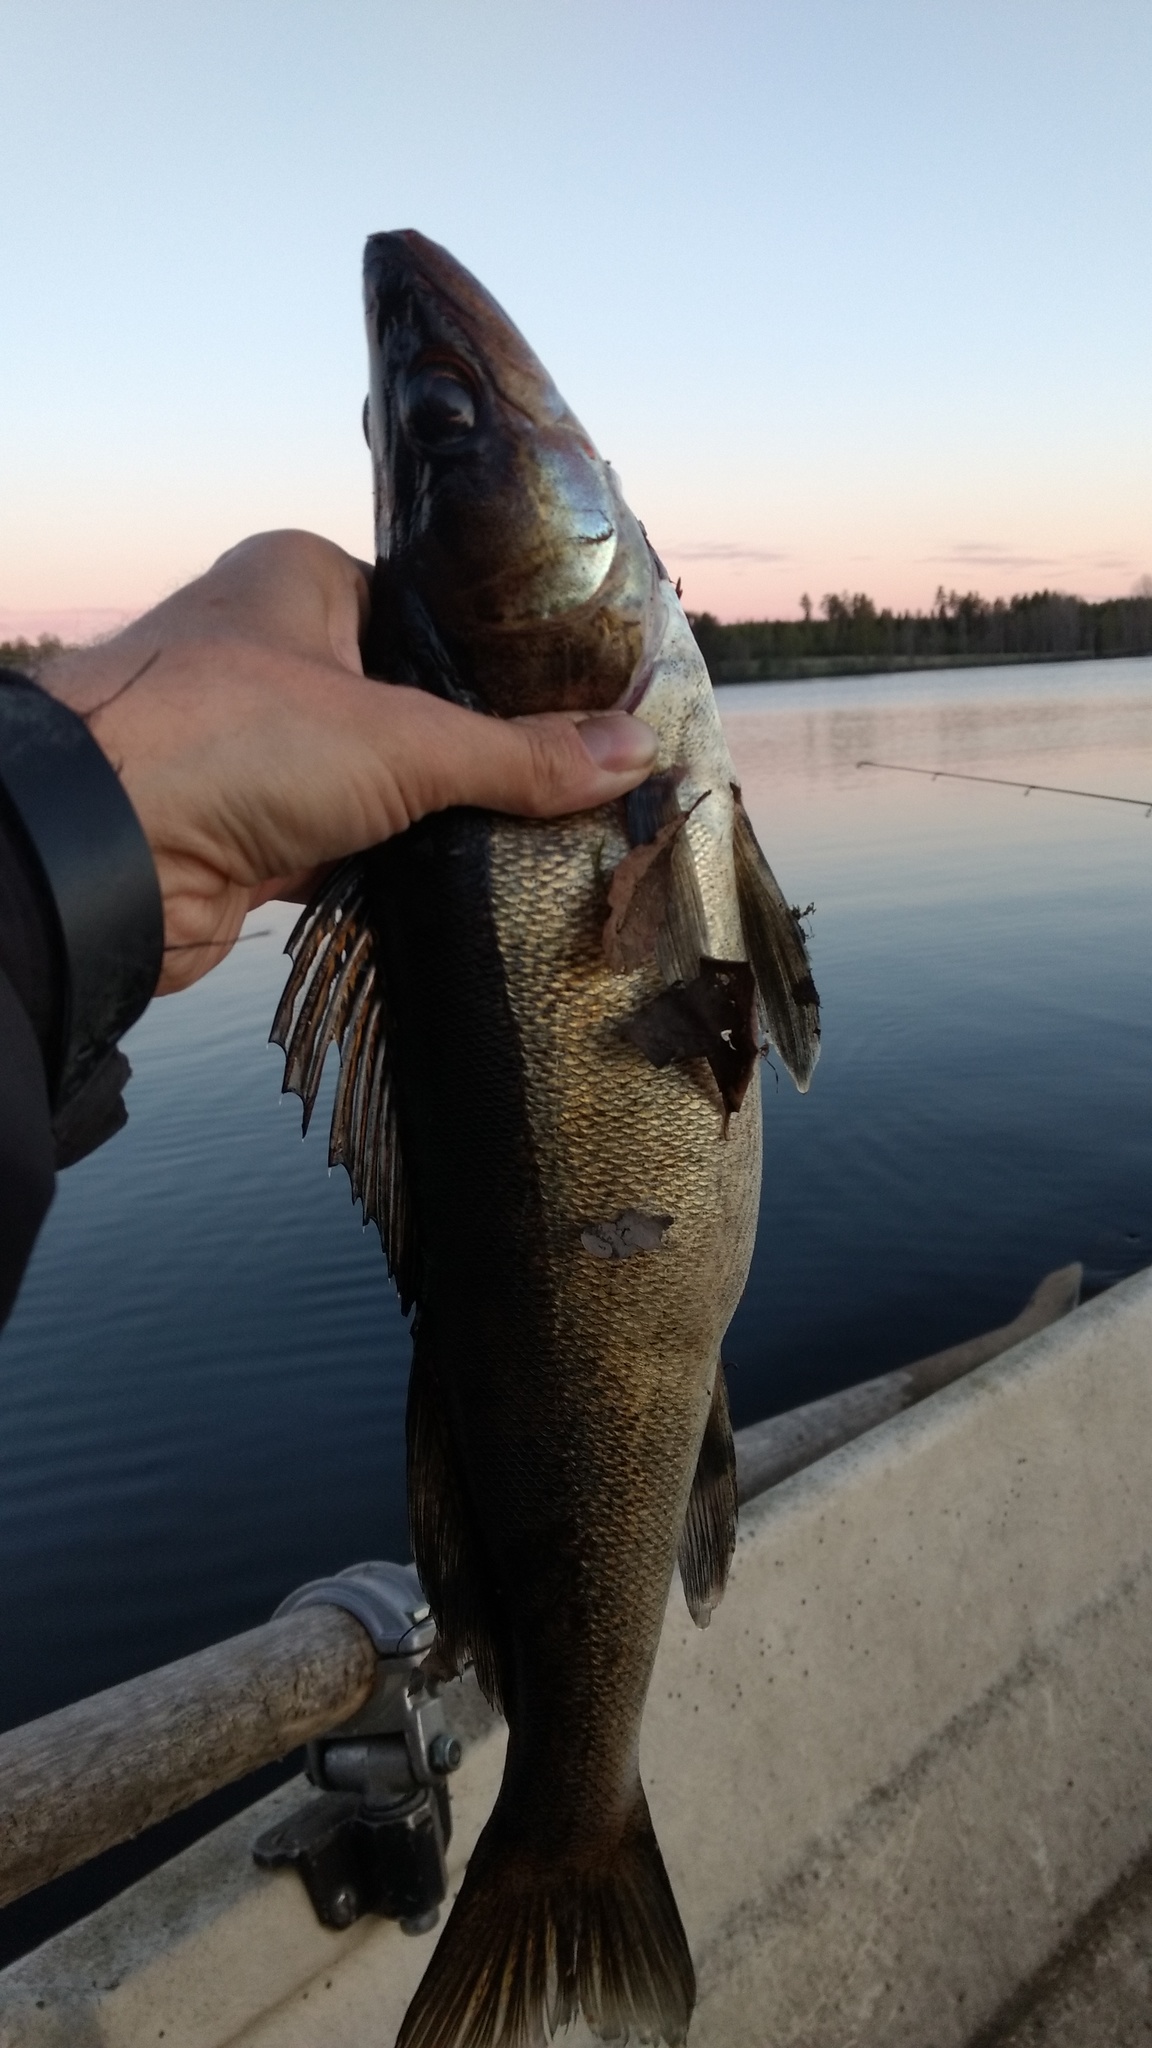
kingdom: Animalia
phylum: Chordata
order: Perciformes
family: Percidae
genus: Sander
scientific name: Sander lucioperca
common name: Pikeperch
